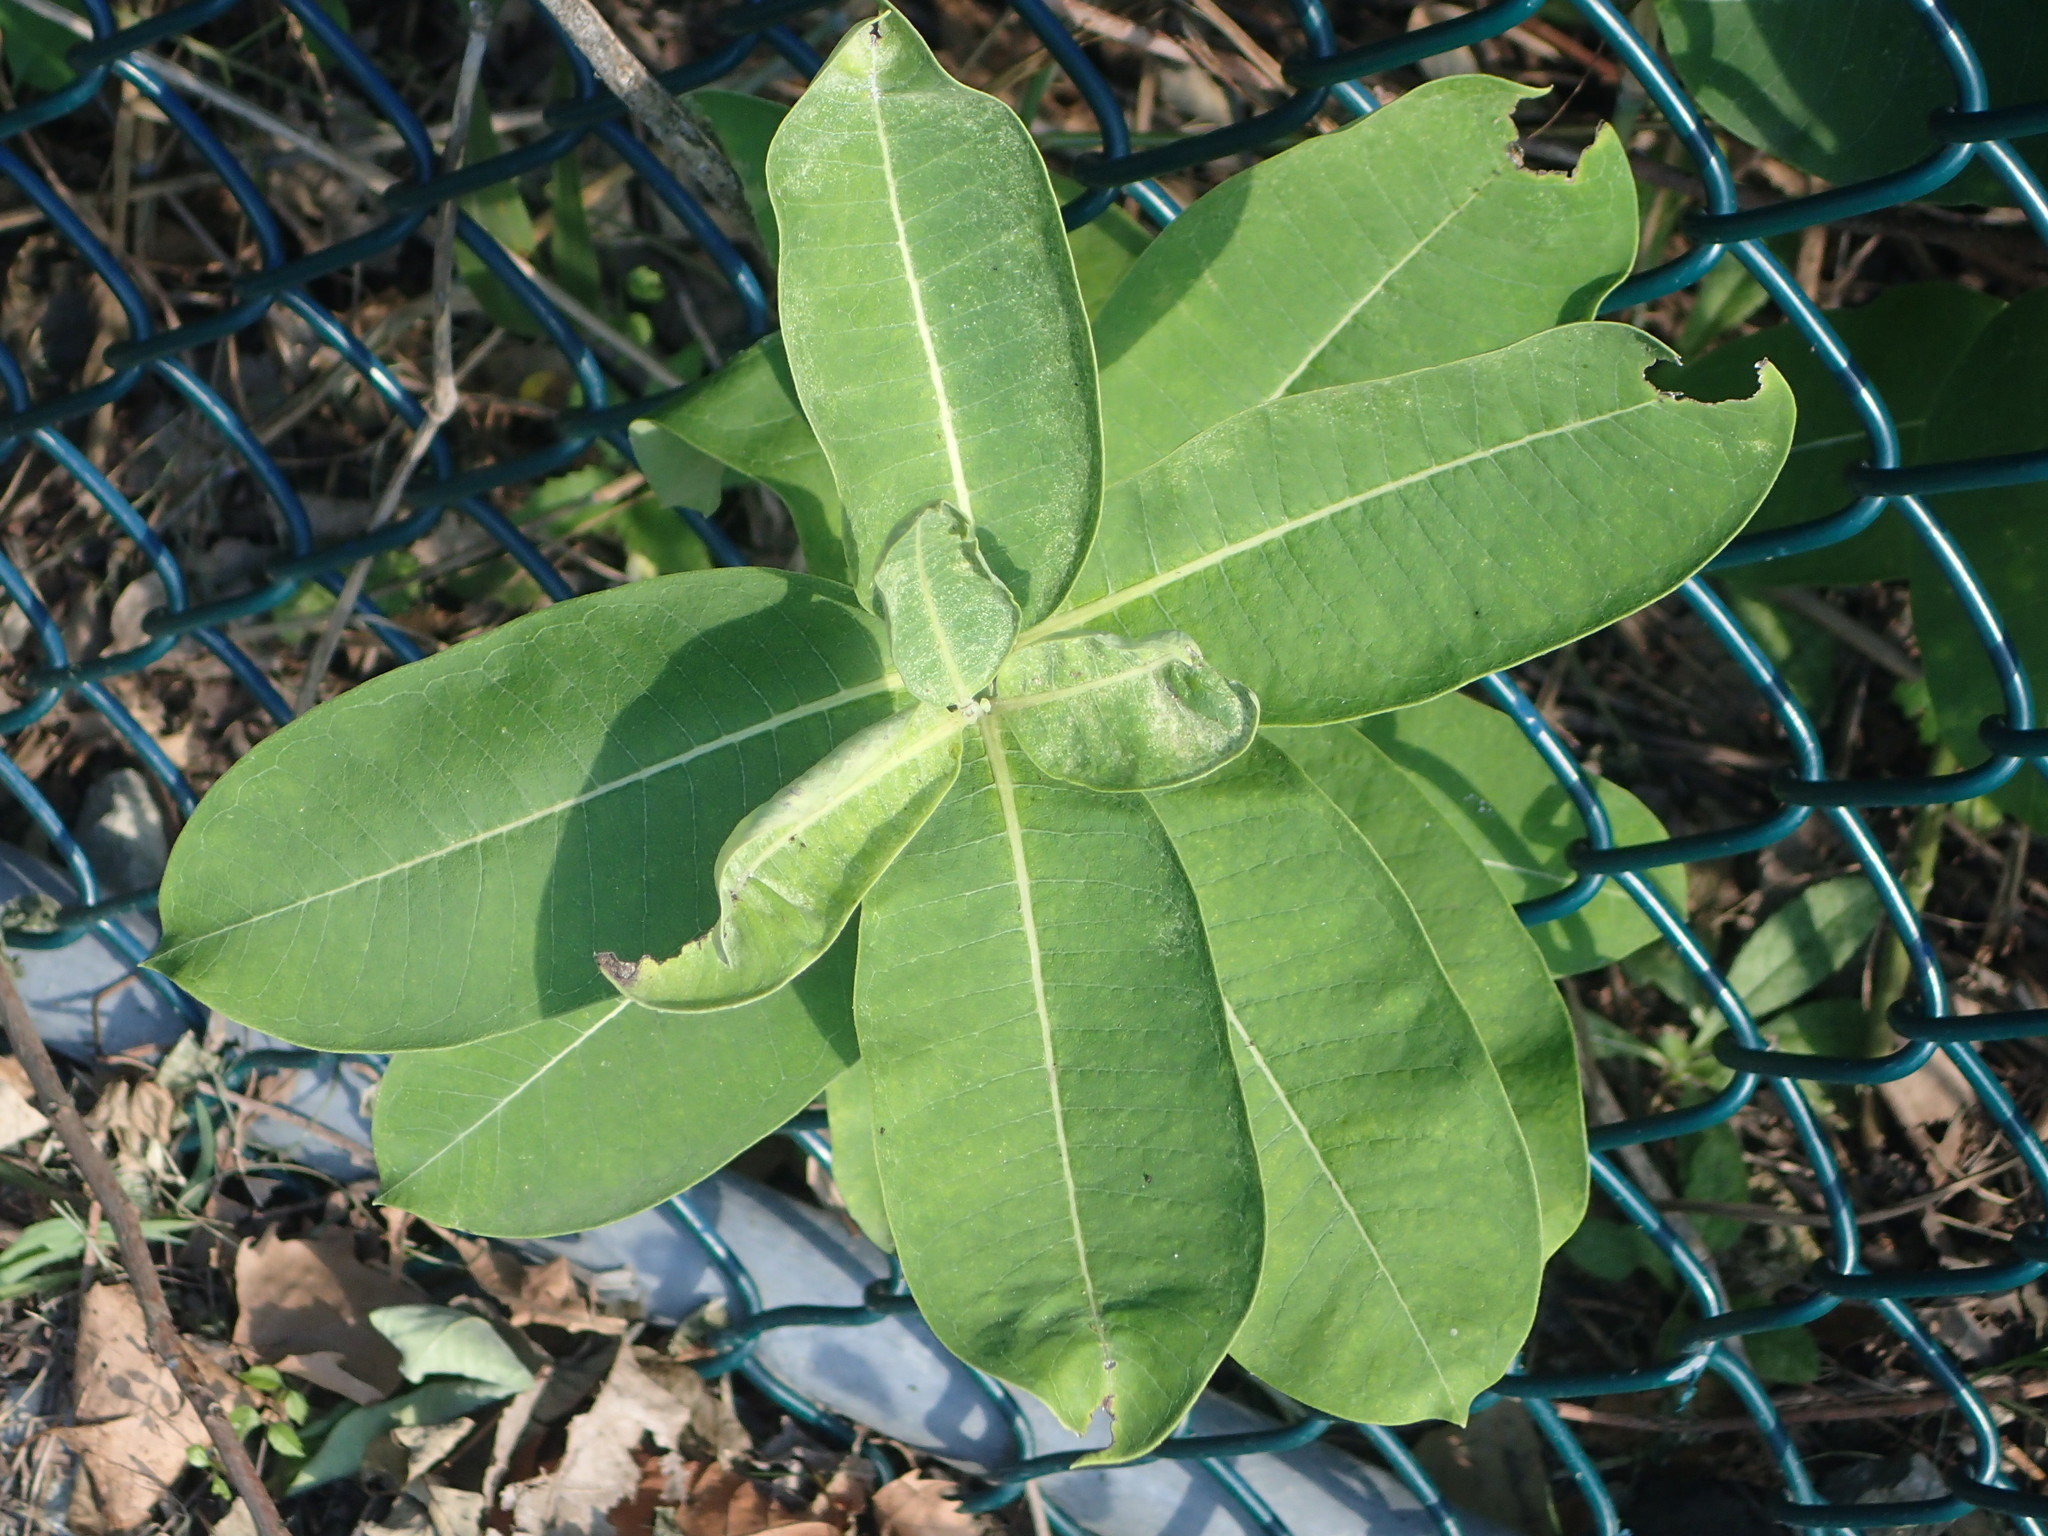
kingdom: Plantae
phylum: Tracheophyta
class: Magnoliopsida
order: Gentianales
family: Apocynaceae
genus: Asclepias
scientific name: Asclepias syriaca
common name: Common milkweed
